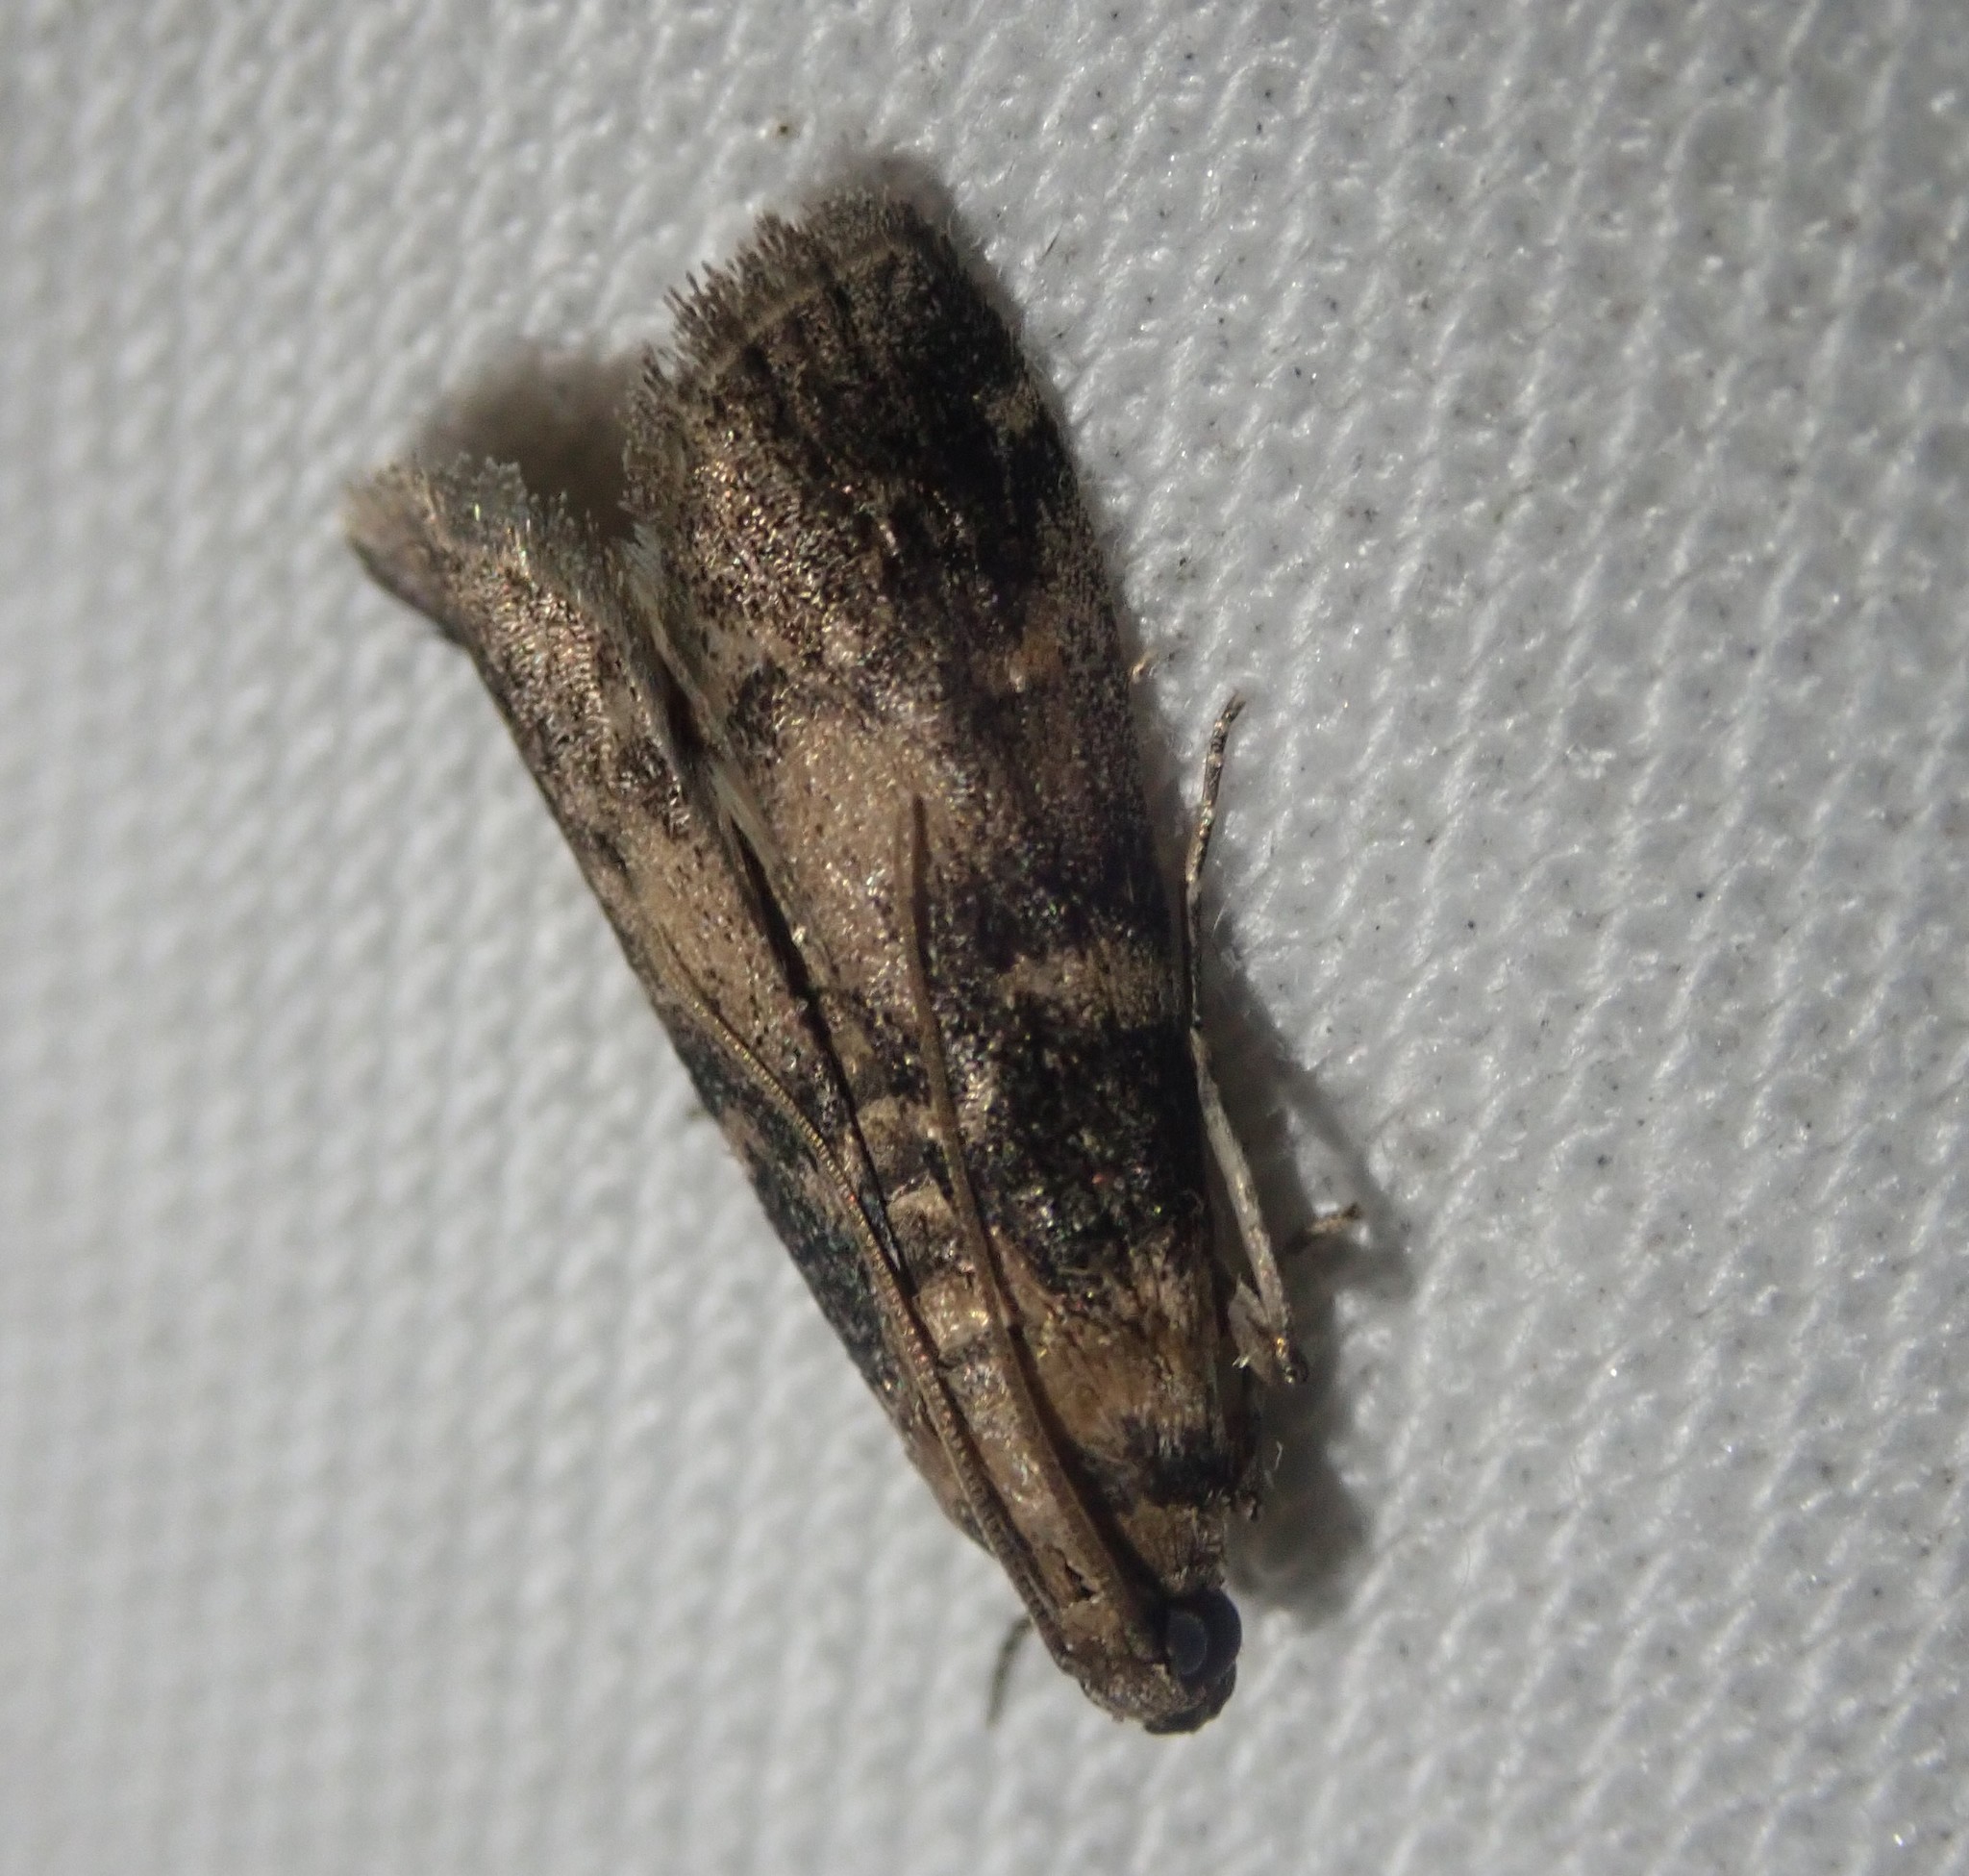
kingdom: Animalia
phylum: Arthropoda
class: Insecta
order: Lepidoptera
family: Pyralidae
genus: Euzophera
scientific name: Euzophera pinguis
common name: Ash-bark knot-horn
